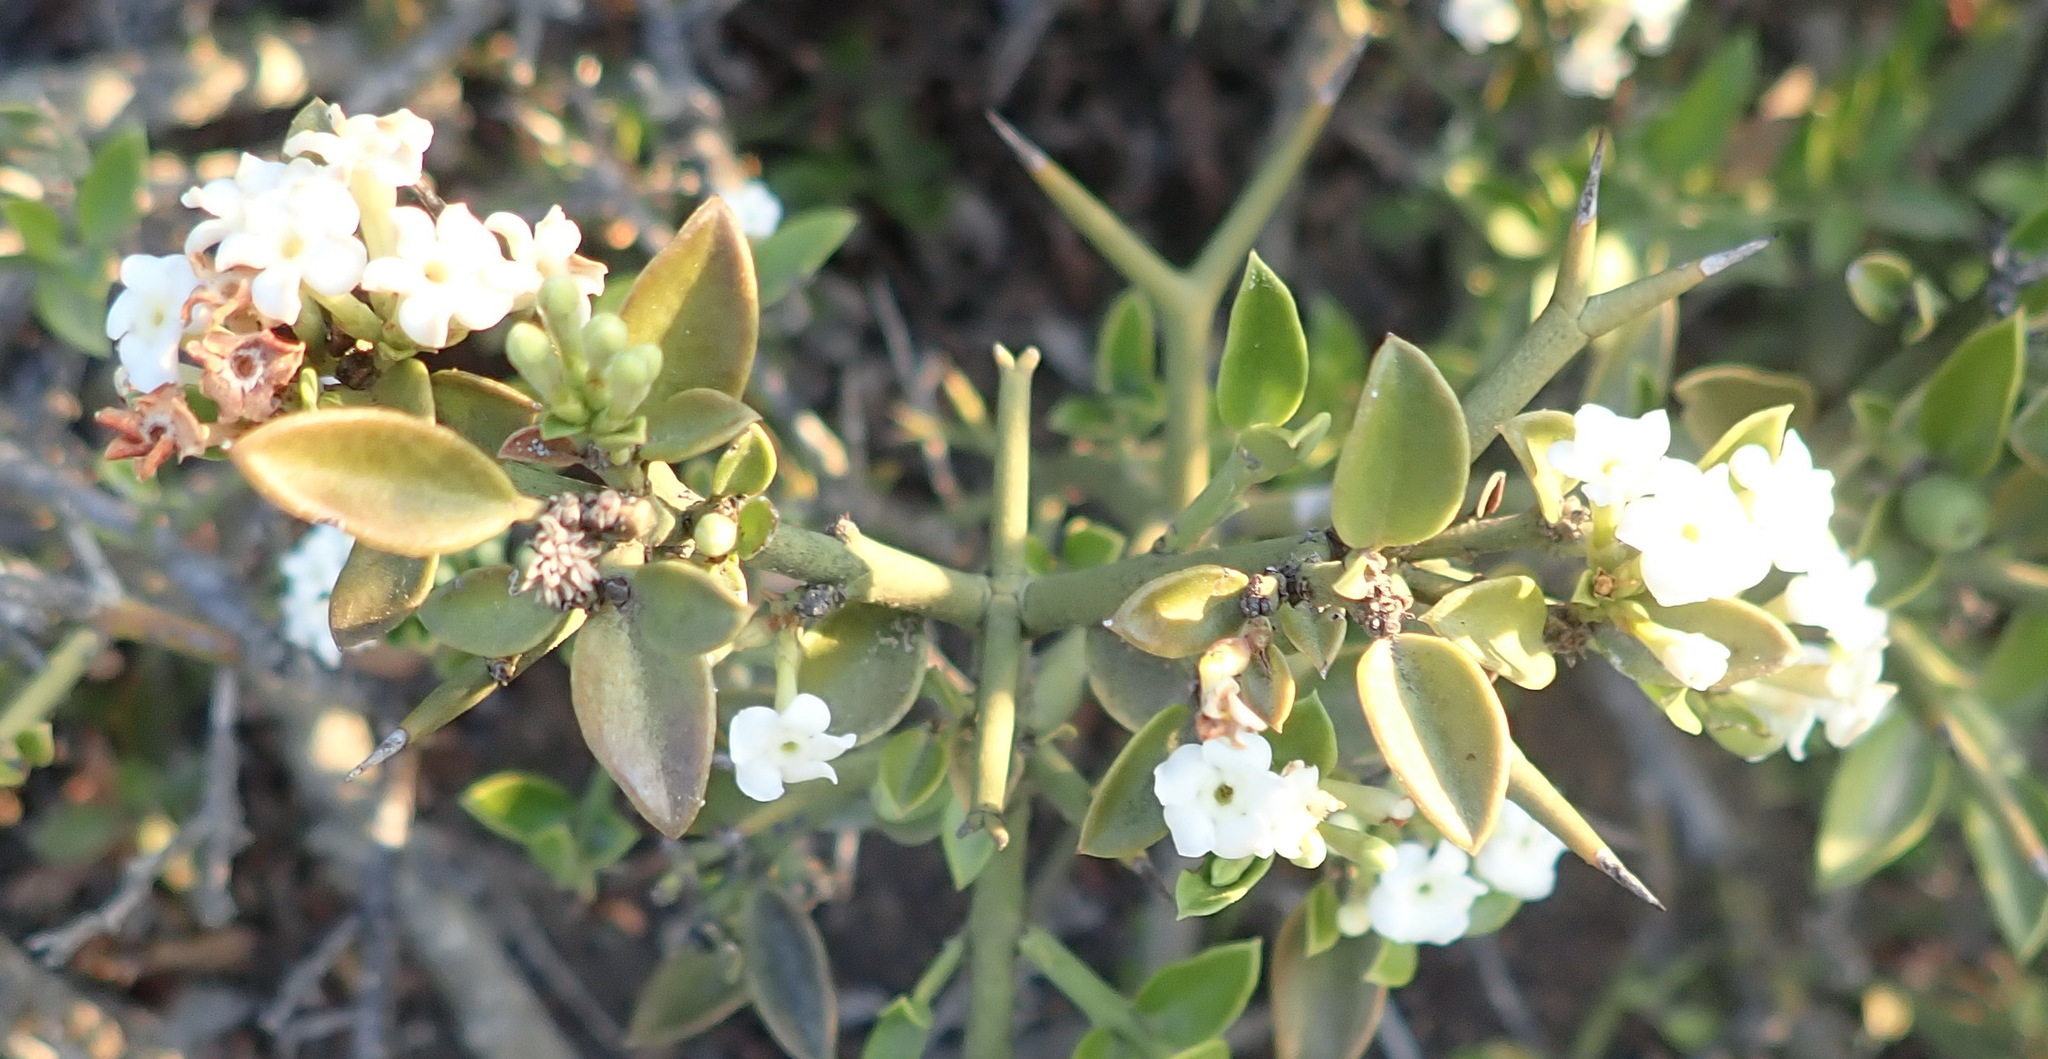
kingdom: Plantae
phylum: Tracheophyta
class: Magnoliopsida
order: Gentianales
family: Apocynaceae
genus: Carissa
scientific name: Carissa haematocarpa
